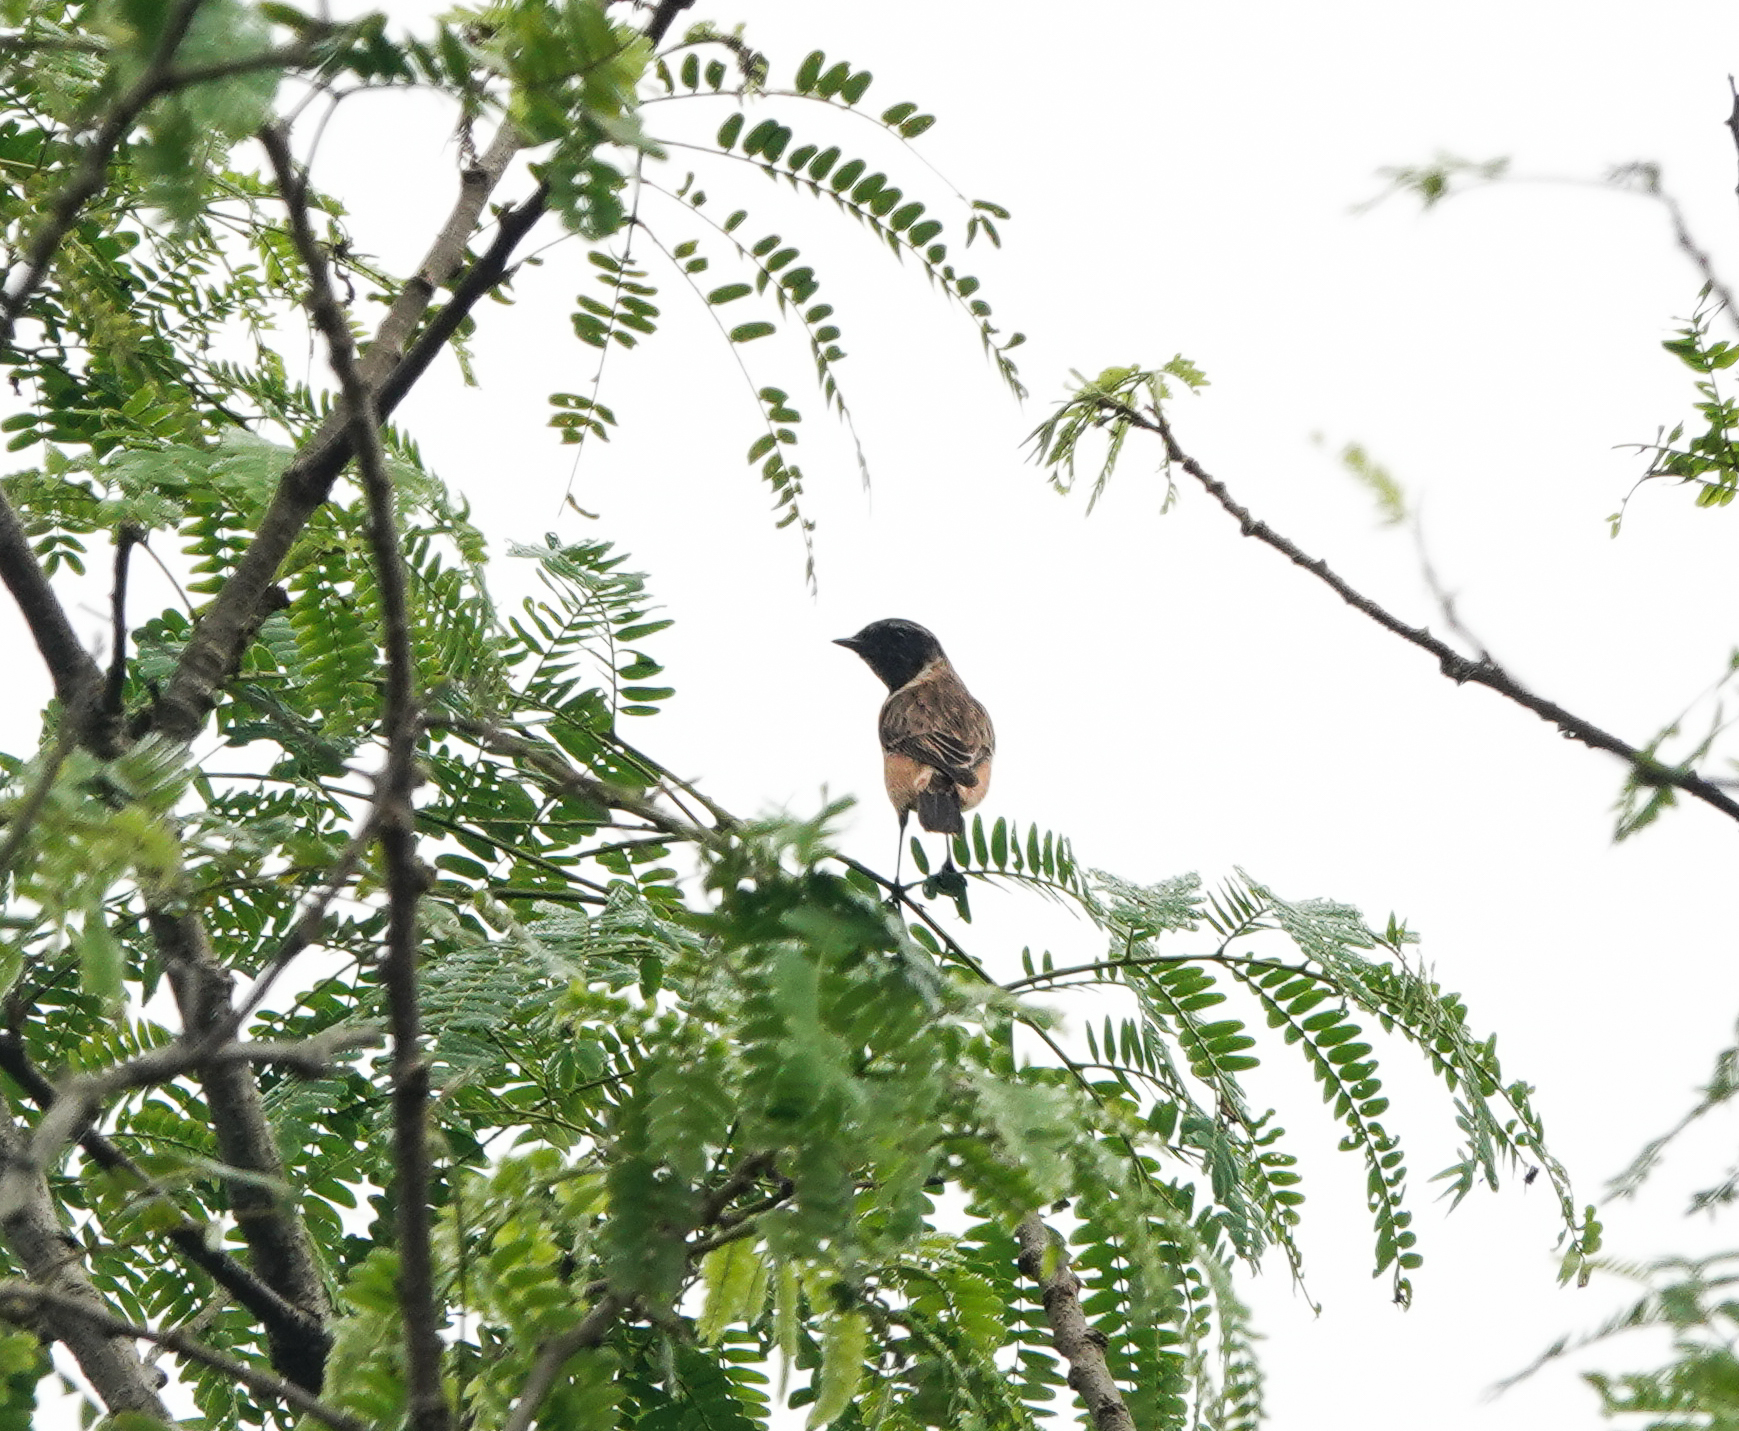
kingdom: Animalia
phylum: Chordata
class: Aves
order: Passeriformes
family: Muscicapidae
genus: Saxicola
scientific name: Saxicola maurus
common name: Siberian stonechat
